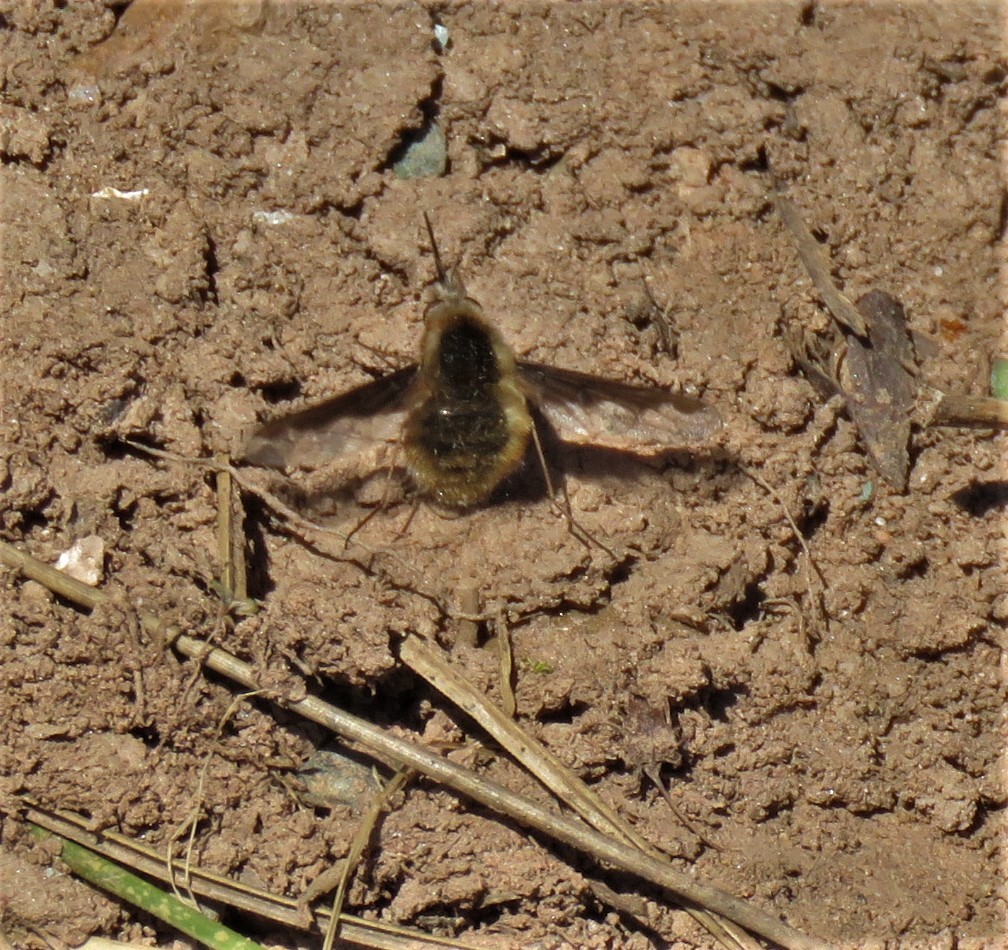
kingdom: Animalia
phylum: Arthropoda
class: Insecta
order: Diptera
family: Bombyliidae
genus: Bombylius
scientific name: Bombylius major
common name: Bee fly
